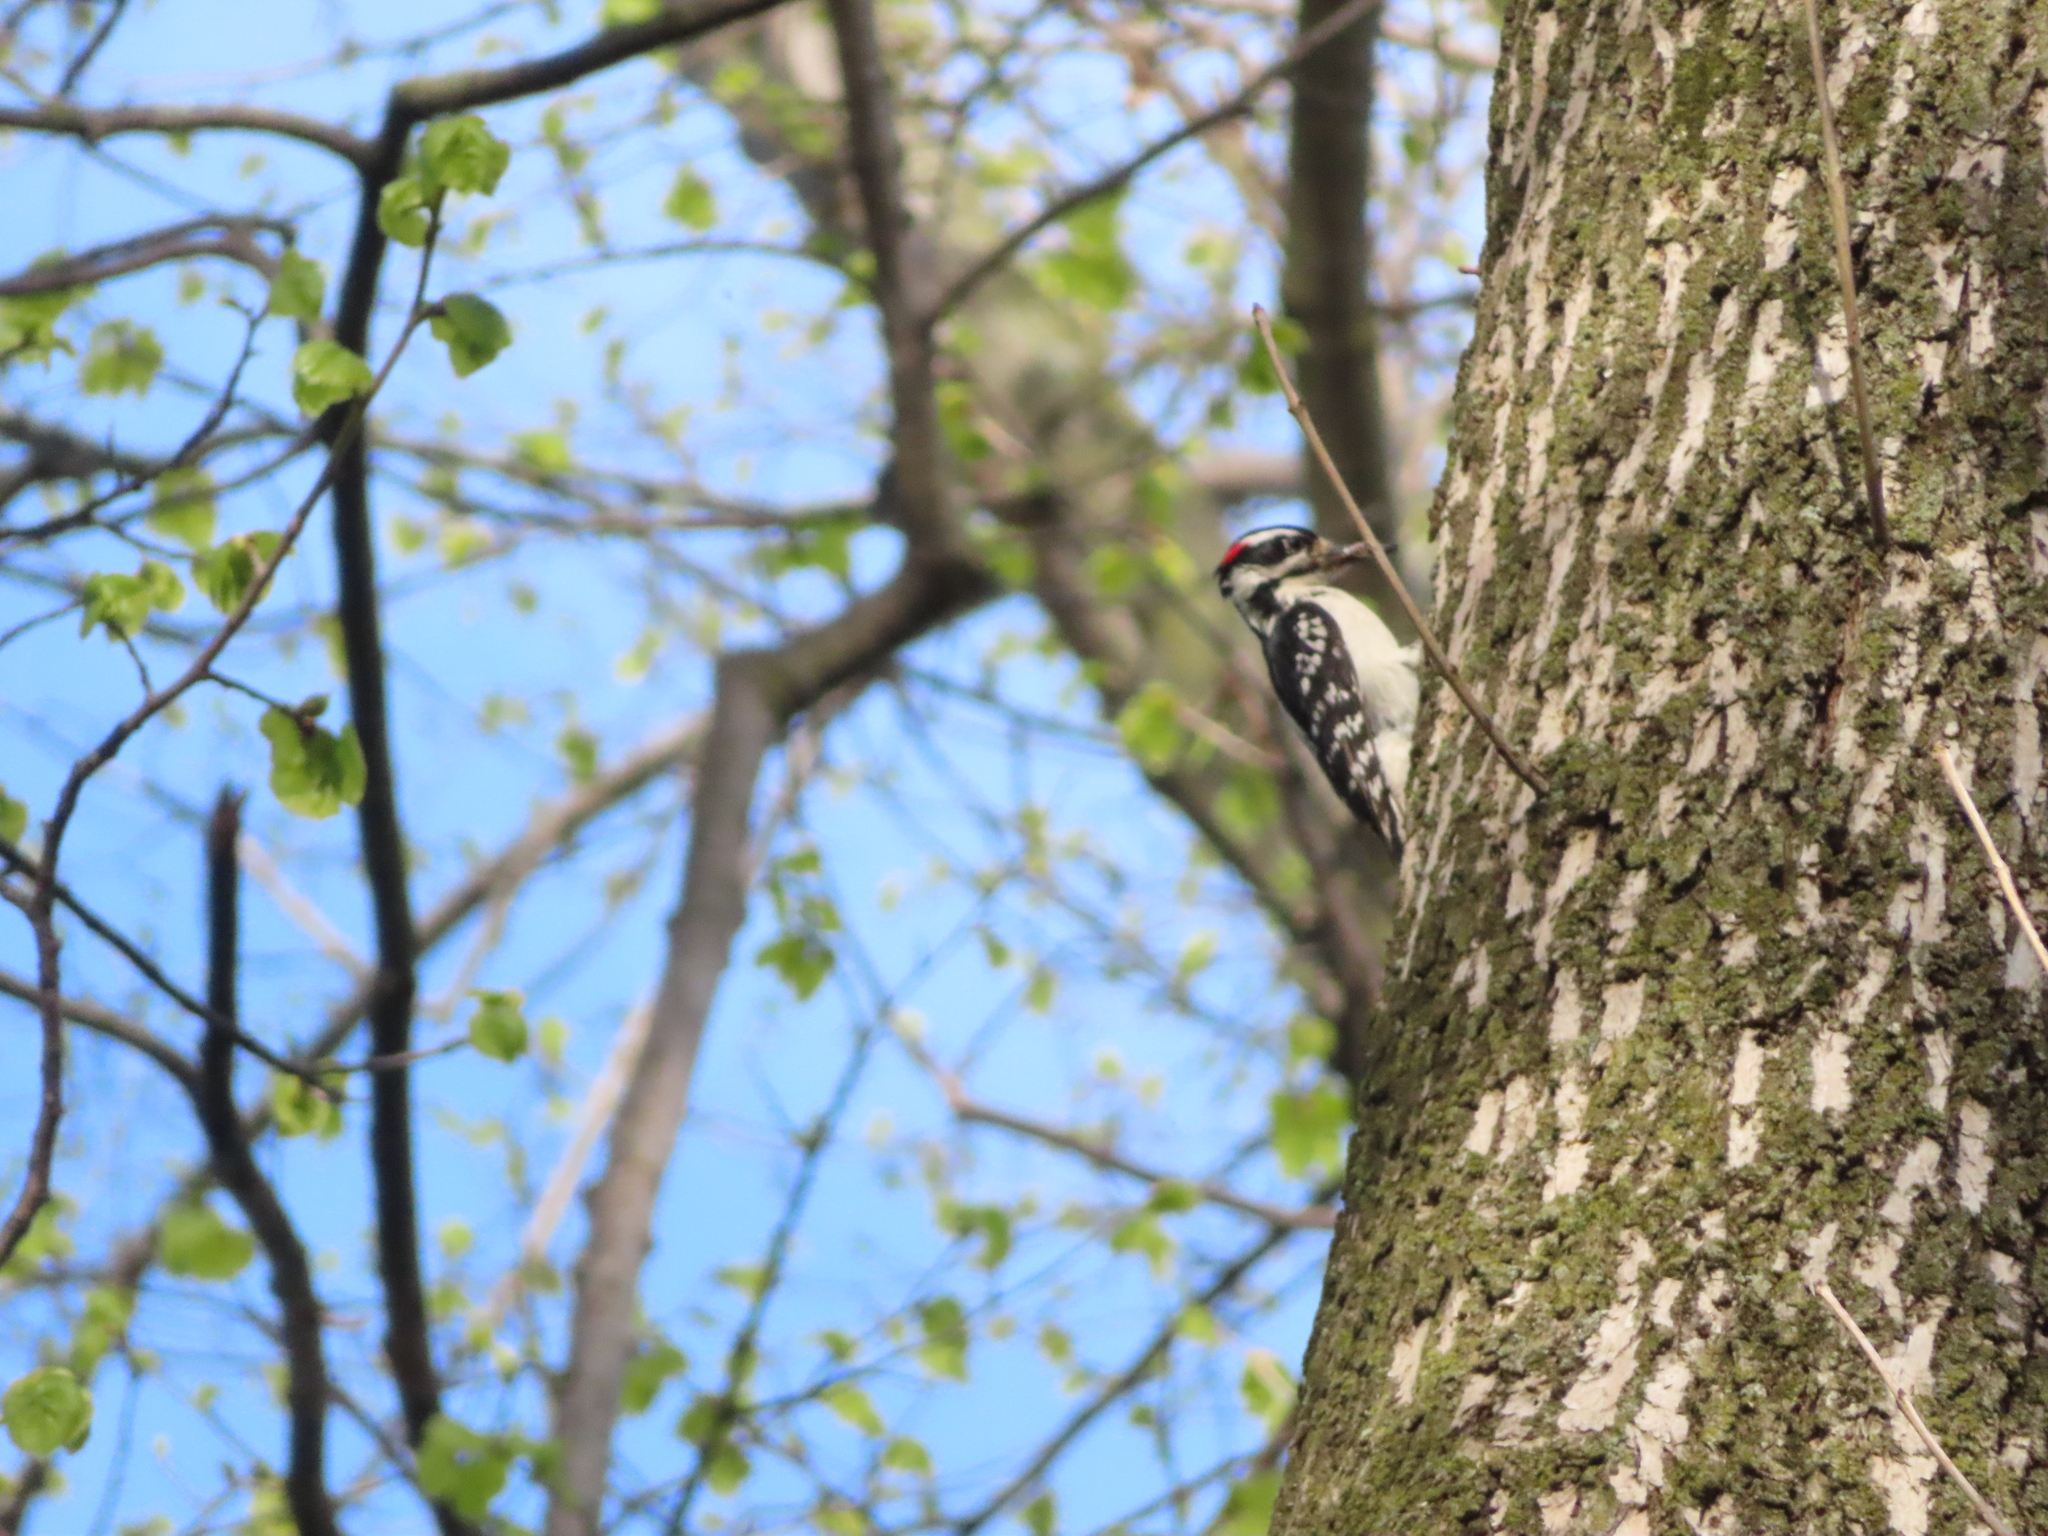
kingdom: Animalia
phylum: Chordata
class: Aves
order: Piciformes
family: Picidae
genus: Leuconotopicus
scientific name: Leuconotopicus villosus
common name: Hairy woodpecker
